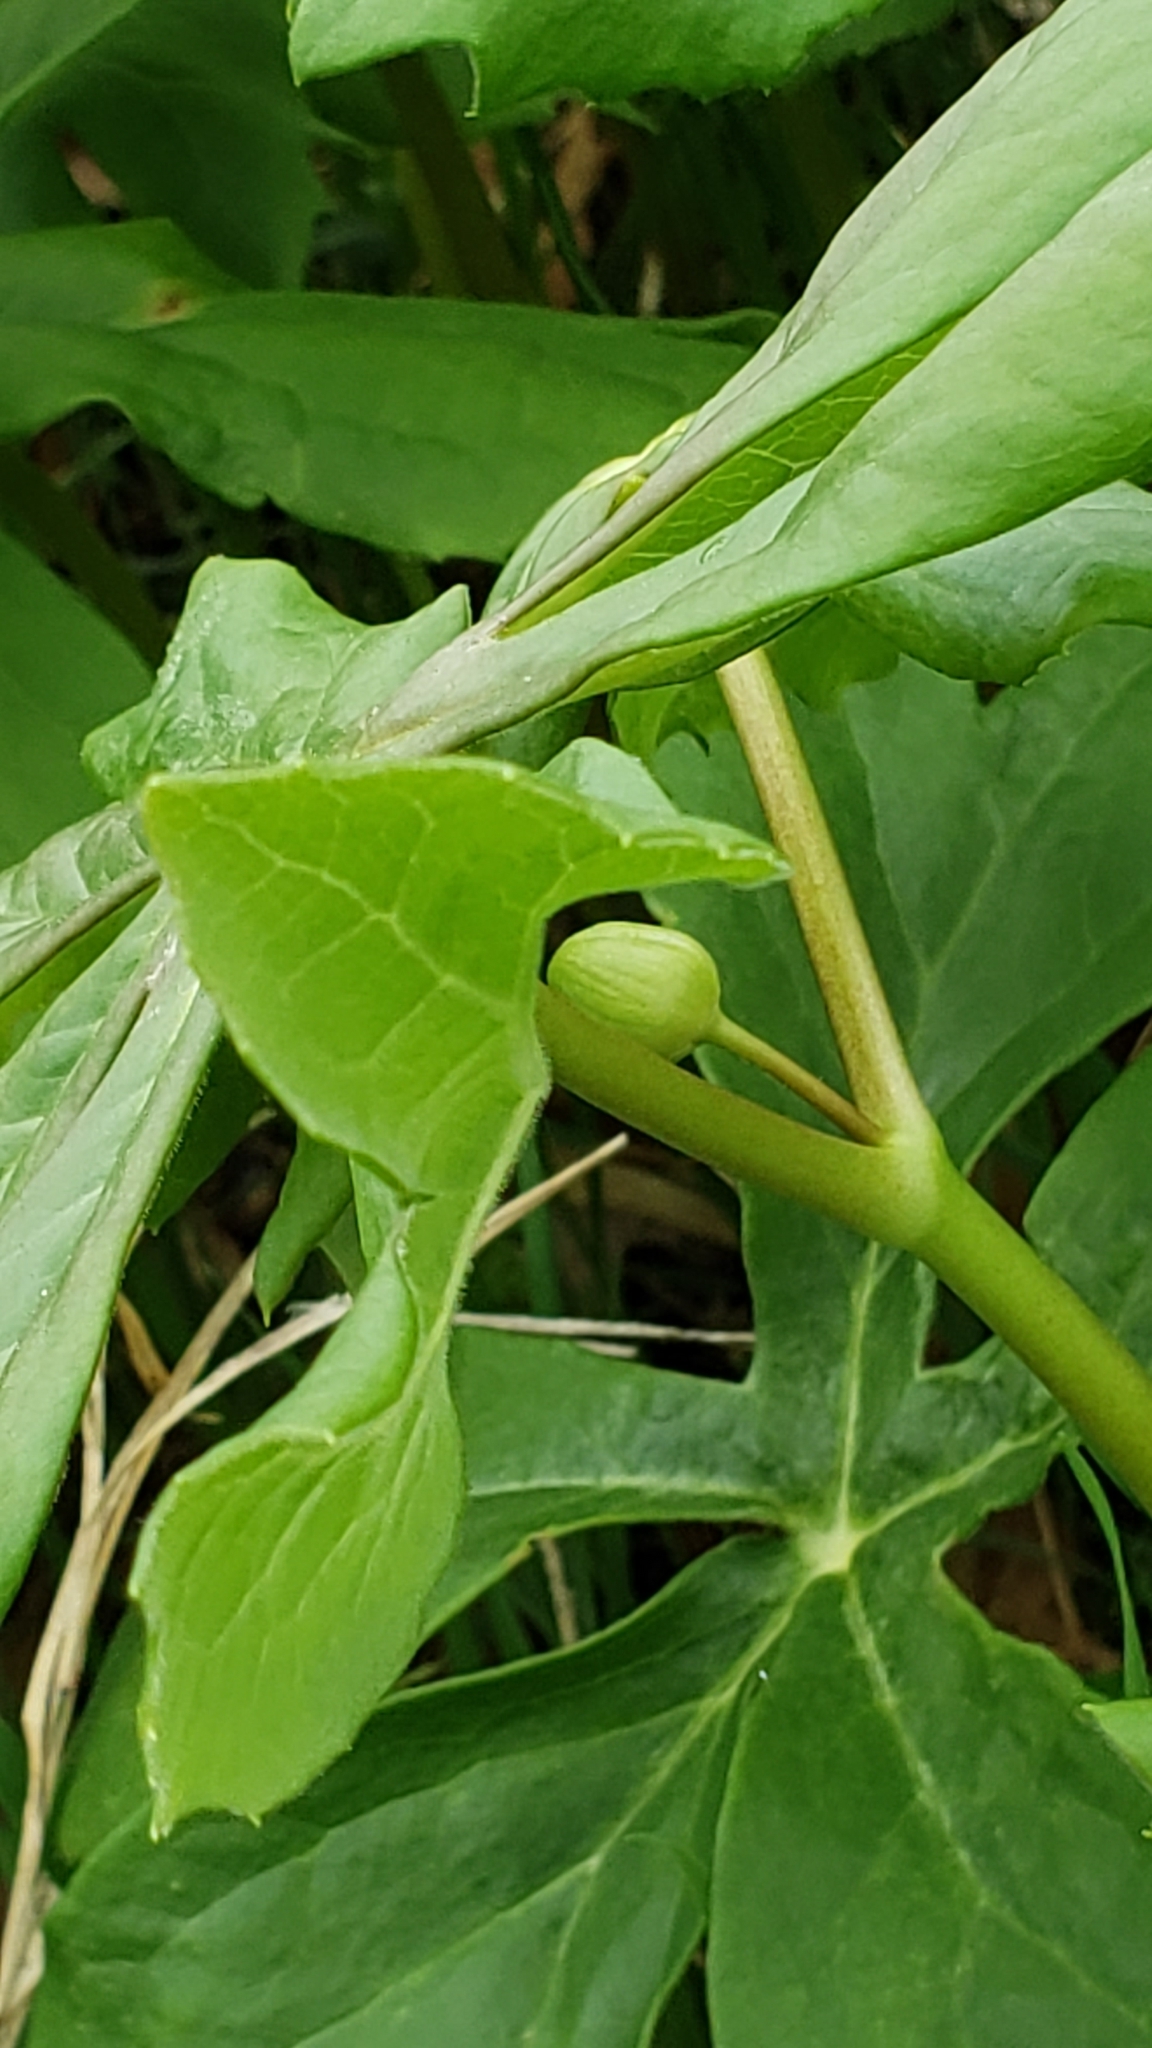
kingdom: Plantae
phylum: Tracheophyta
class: Magnoliopsida
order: Ranunculales
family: Berberidaceae
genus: Podophyllum
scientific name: Podophyllum peltatum
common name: Wild mandrake
